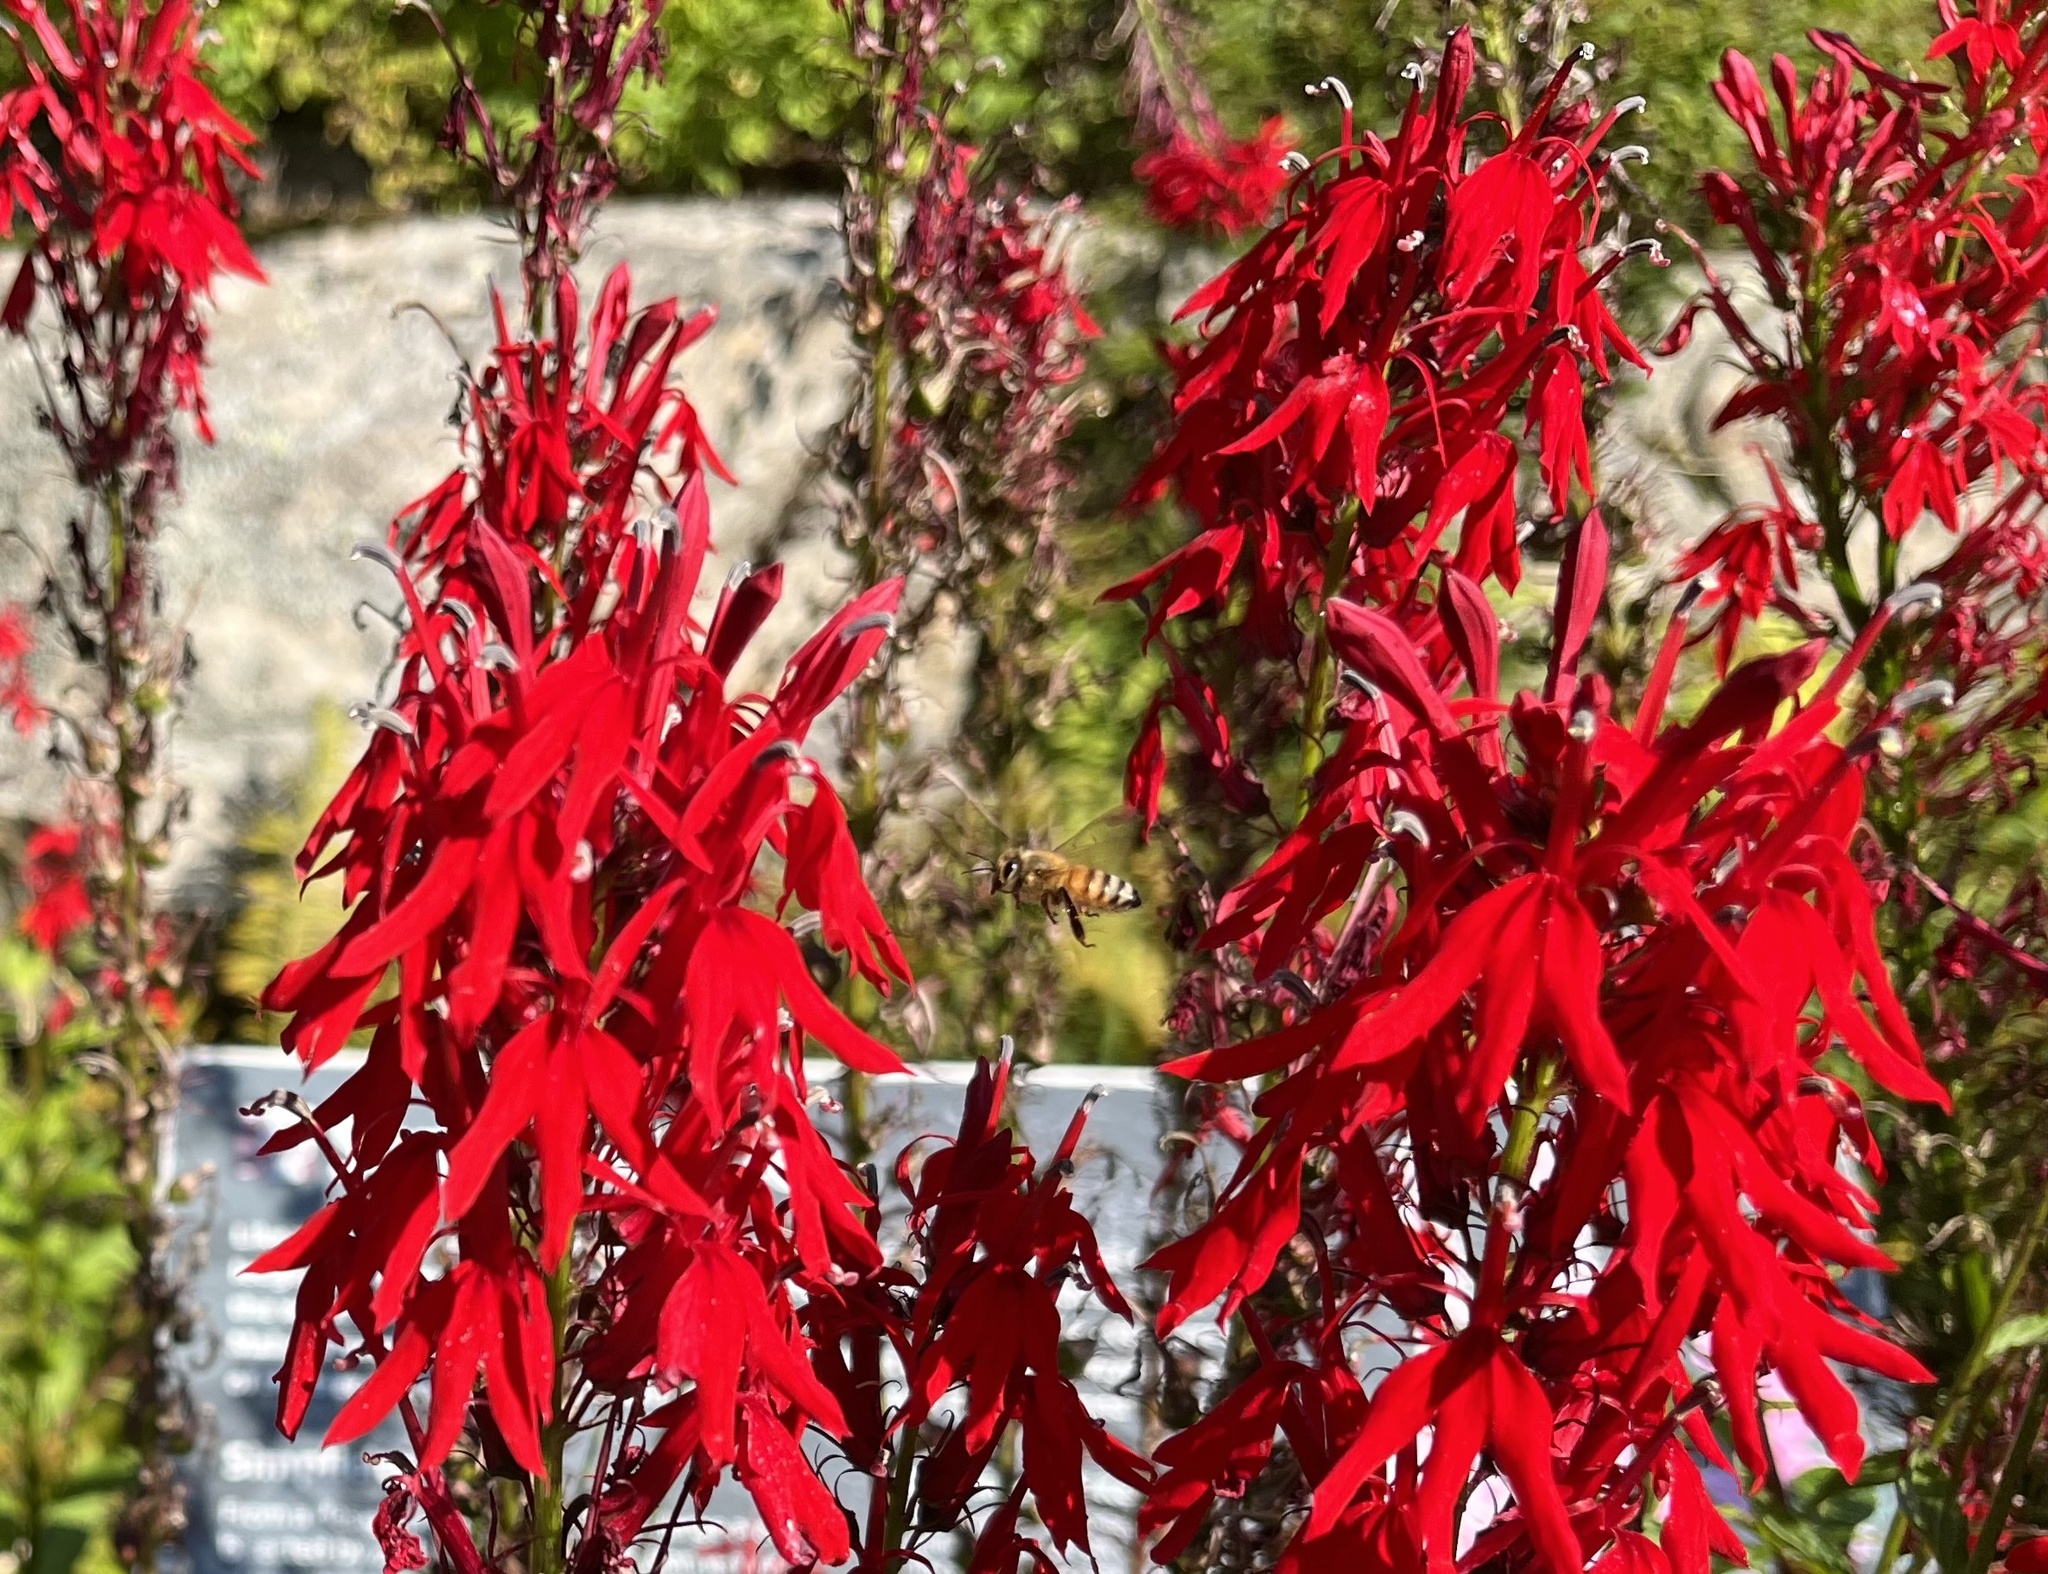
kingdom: Animalia
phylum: Arthropoda
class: Insecta
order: Hymenoptera
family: Apidae
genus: Apis
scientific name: Apis mellifera
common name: Honey bee
